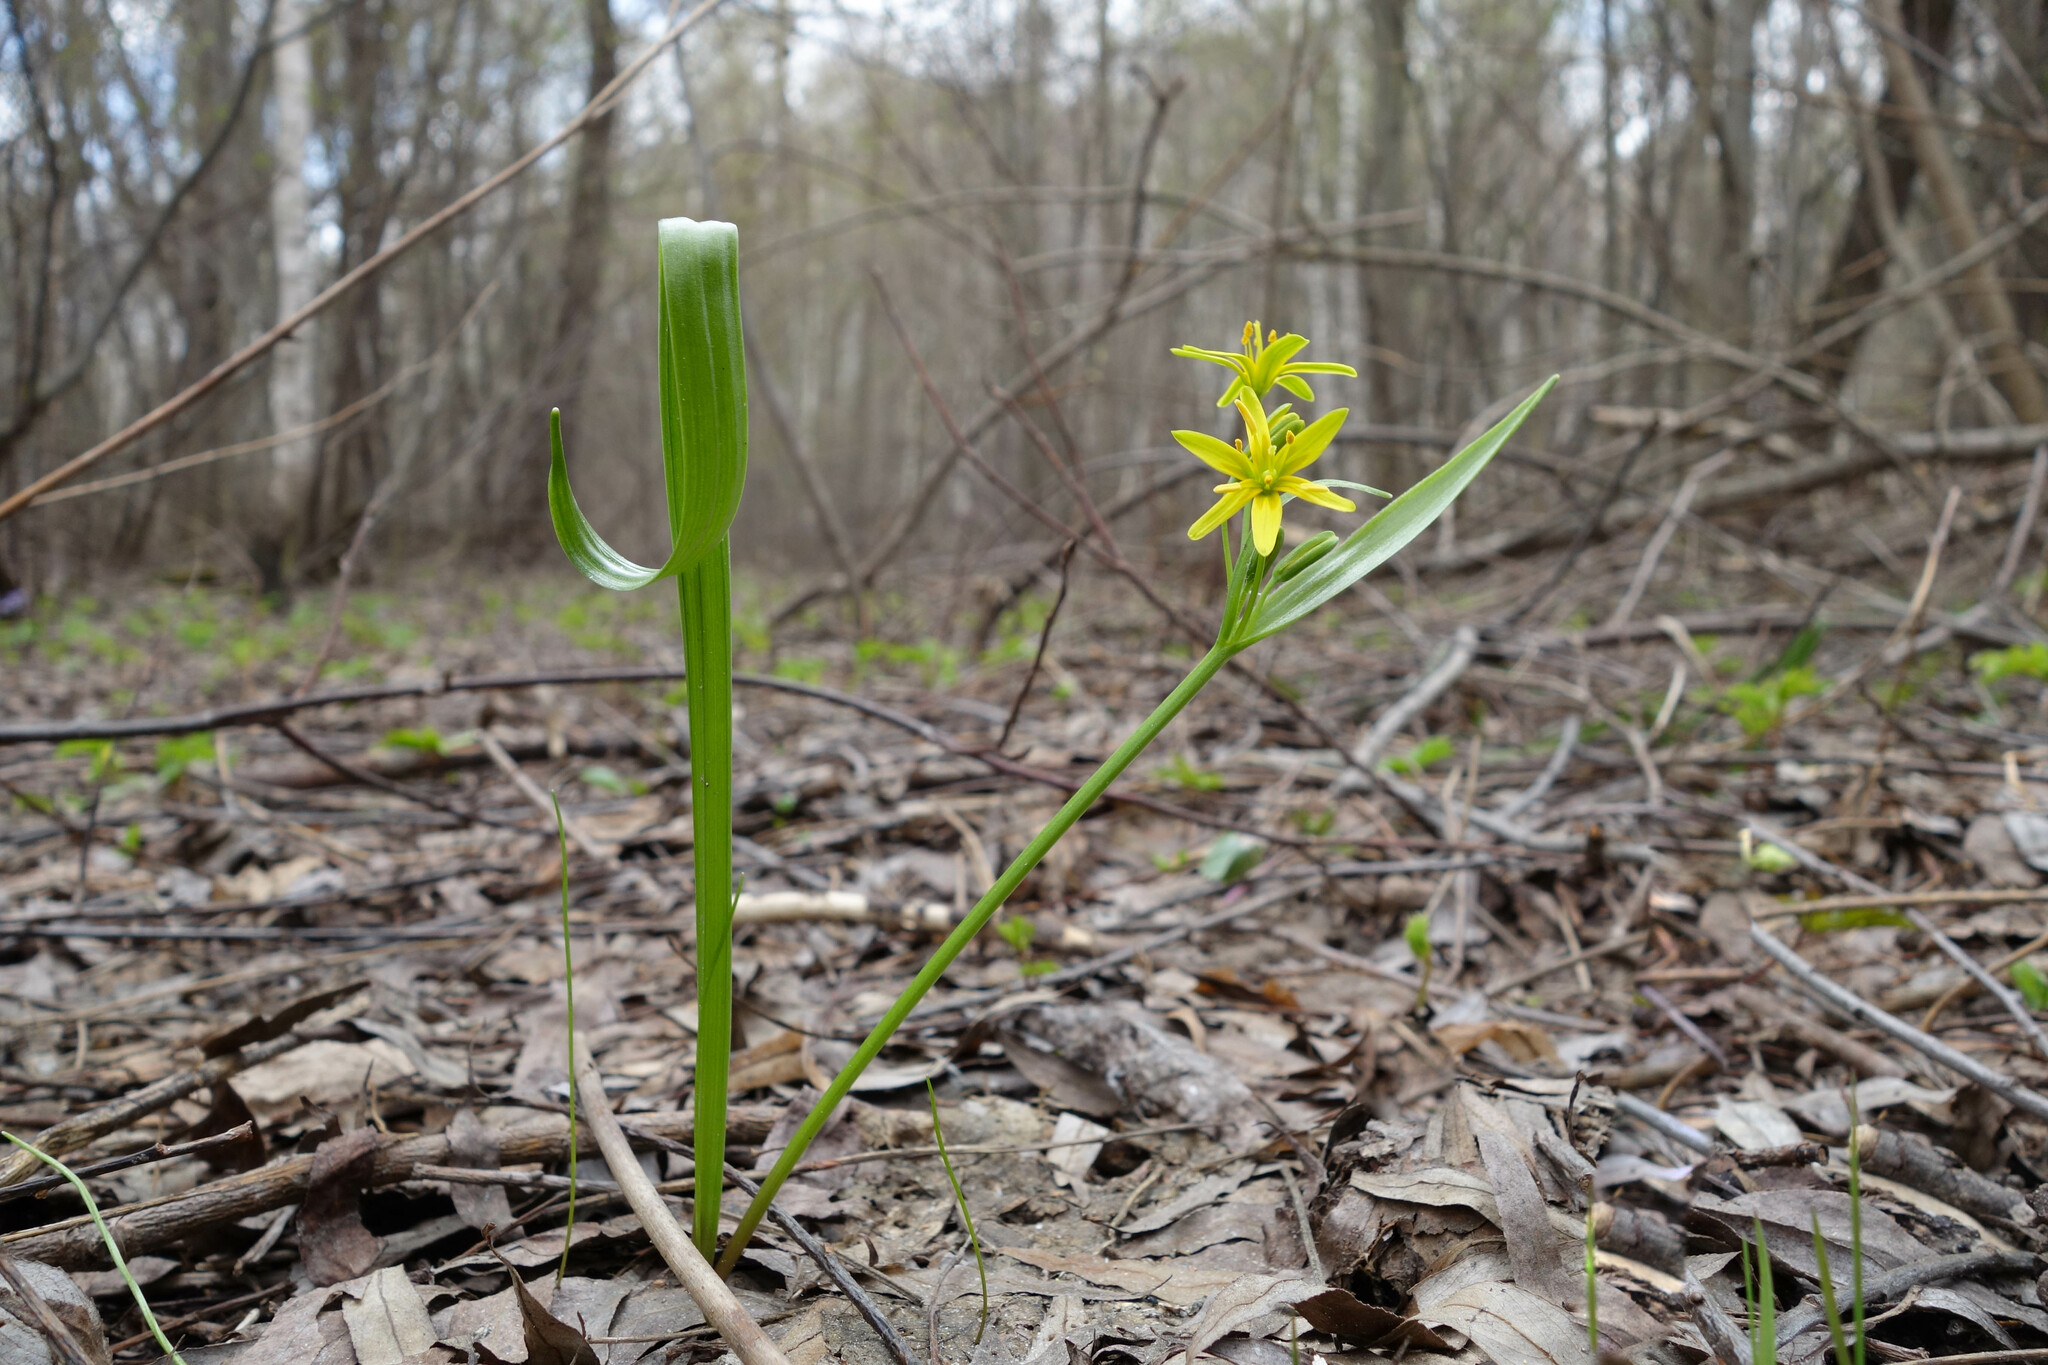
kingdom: Plantae
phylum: Tracheophyta
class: Liliopsida
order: Liliales
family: Liliaceae
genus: Gagea
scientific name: Gagea lutea
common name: Yellow star-of-bethlehem
